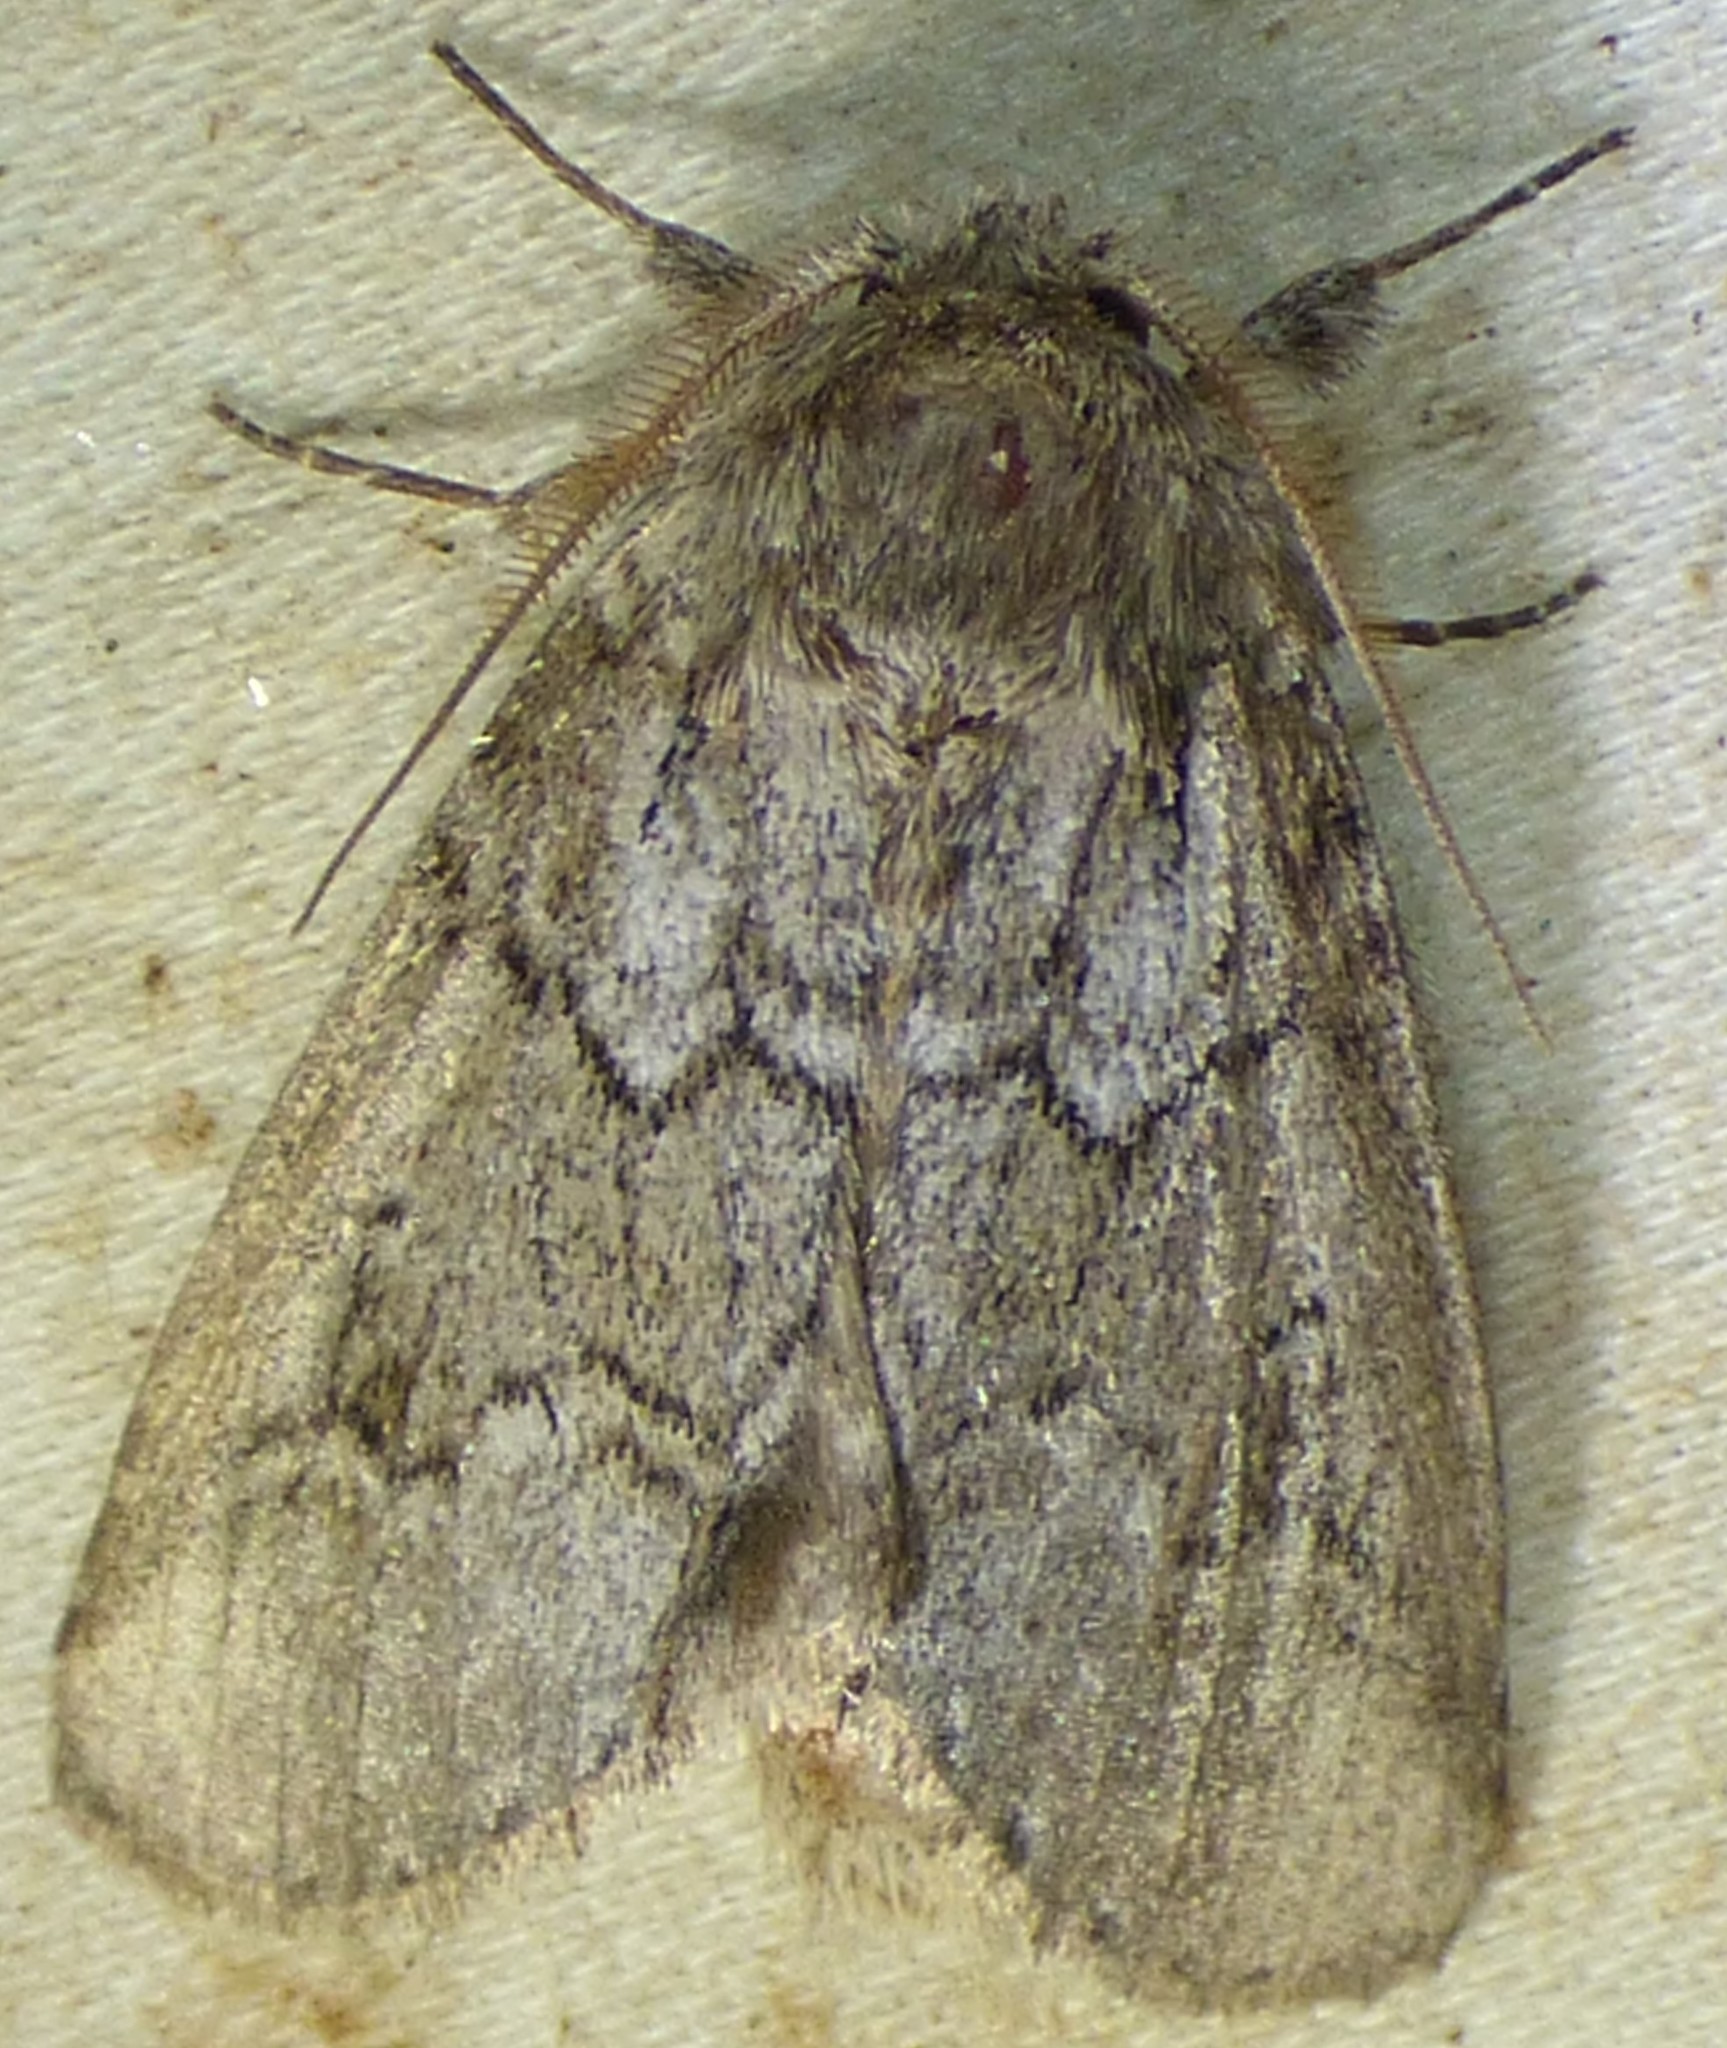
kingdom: Animalia
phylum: Arthropoda
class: Insecta
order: Lepidoptera
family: Notodontidae
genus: Lochmaeus
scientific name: Lochmaeus bilineata
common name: Double-lined prominent
